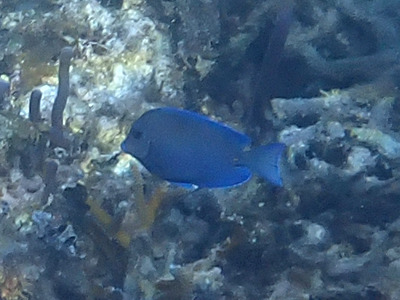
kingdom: Animalia
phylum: Chordata
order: Perciformes
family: Acanthuridae
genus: Acanthurus
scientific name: Acanthurus coeruleus
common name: Blue tang
